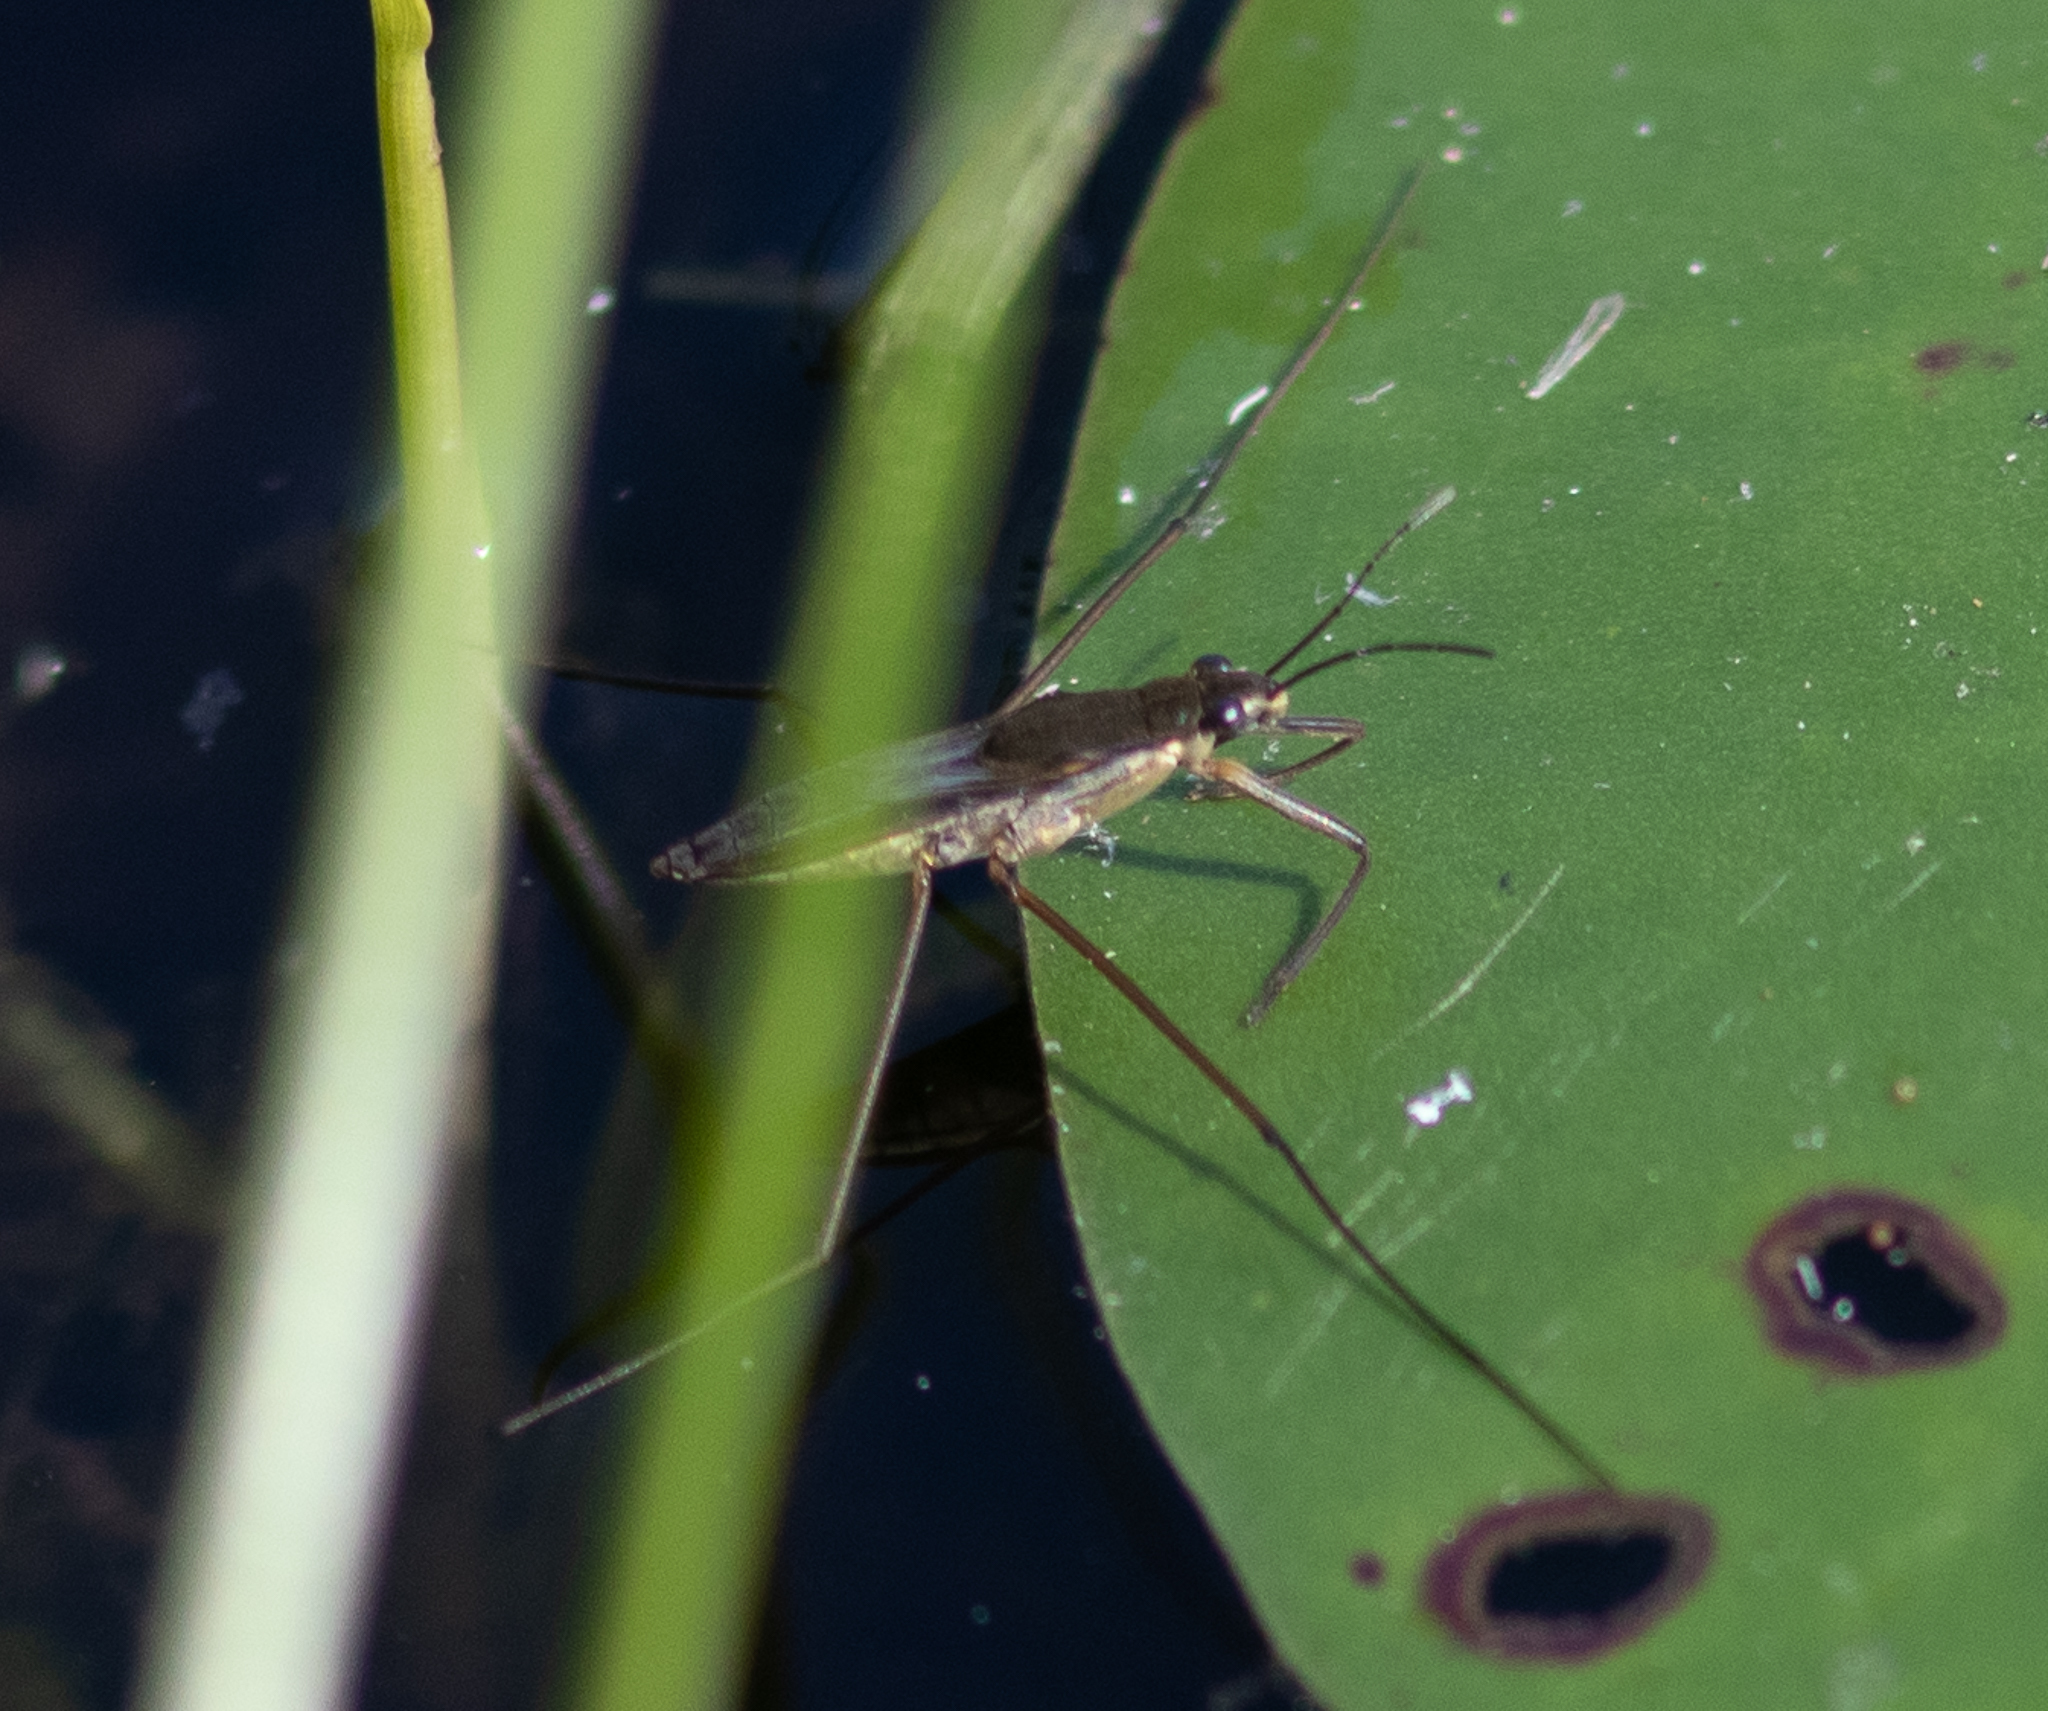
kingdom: Animalia
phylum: Arthropoda
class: Insecta
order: Hemiptera
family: Gerridae
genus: Gerris
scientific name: Gerris
